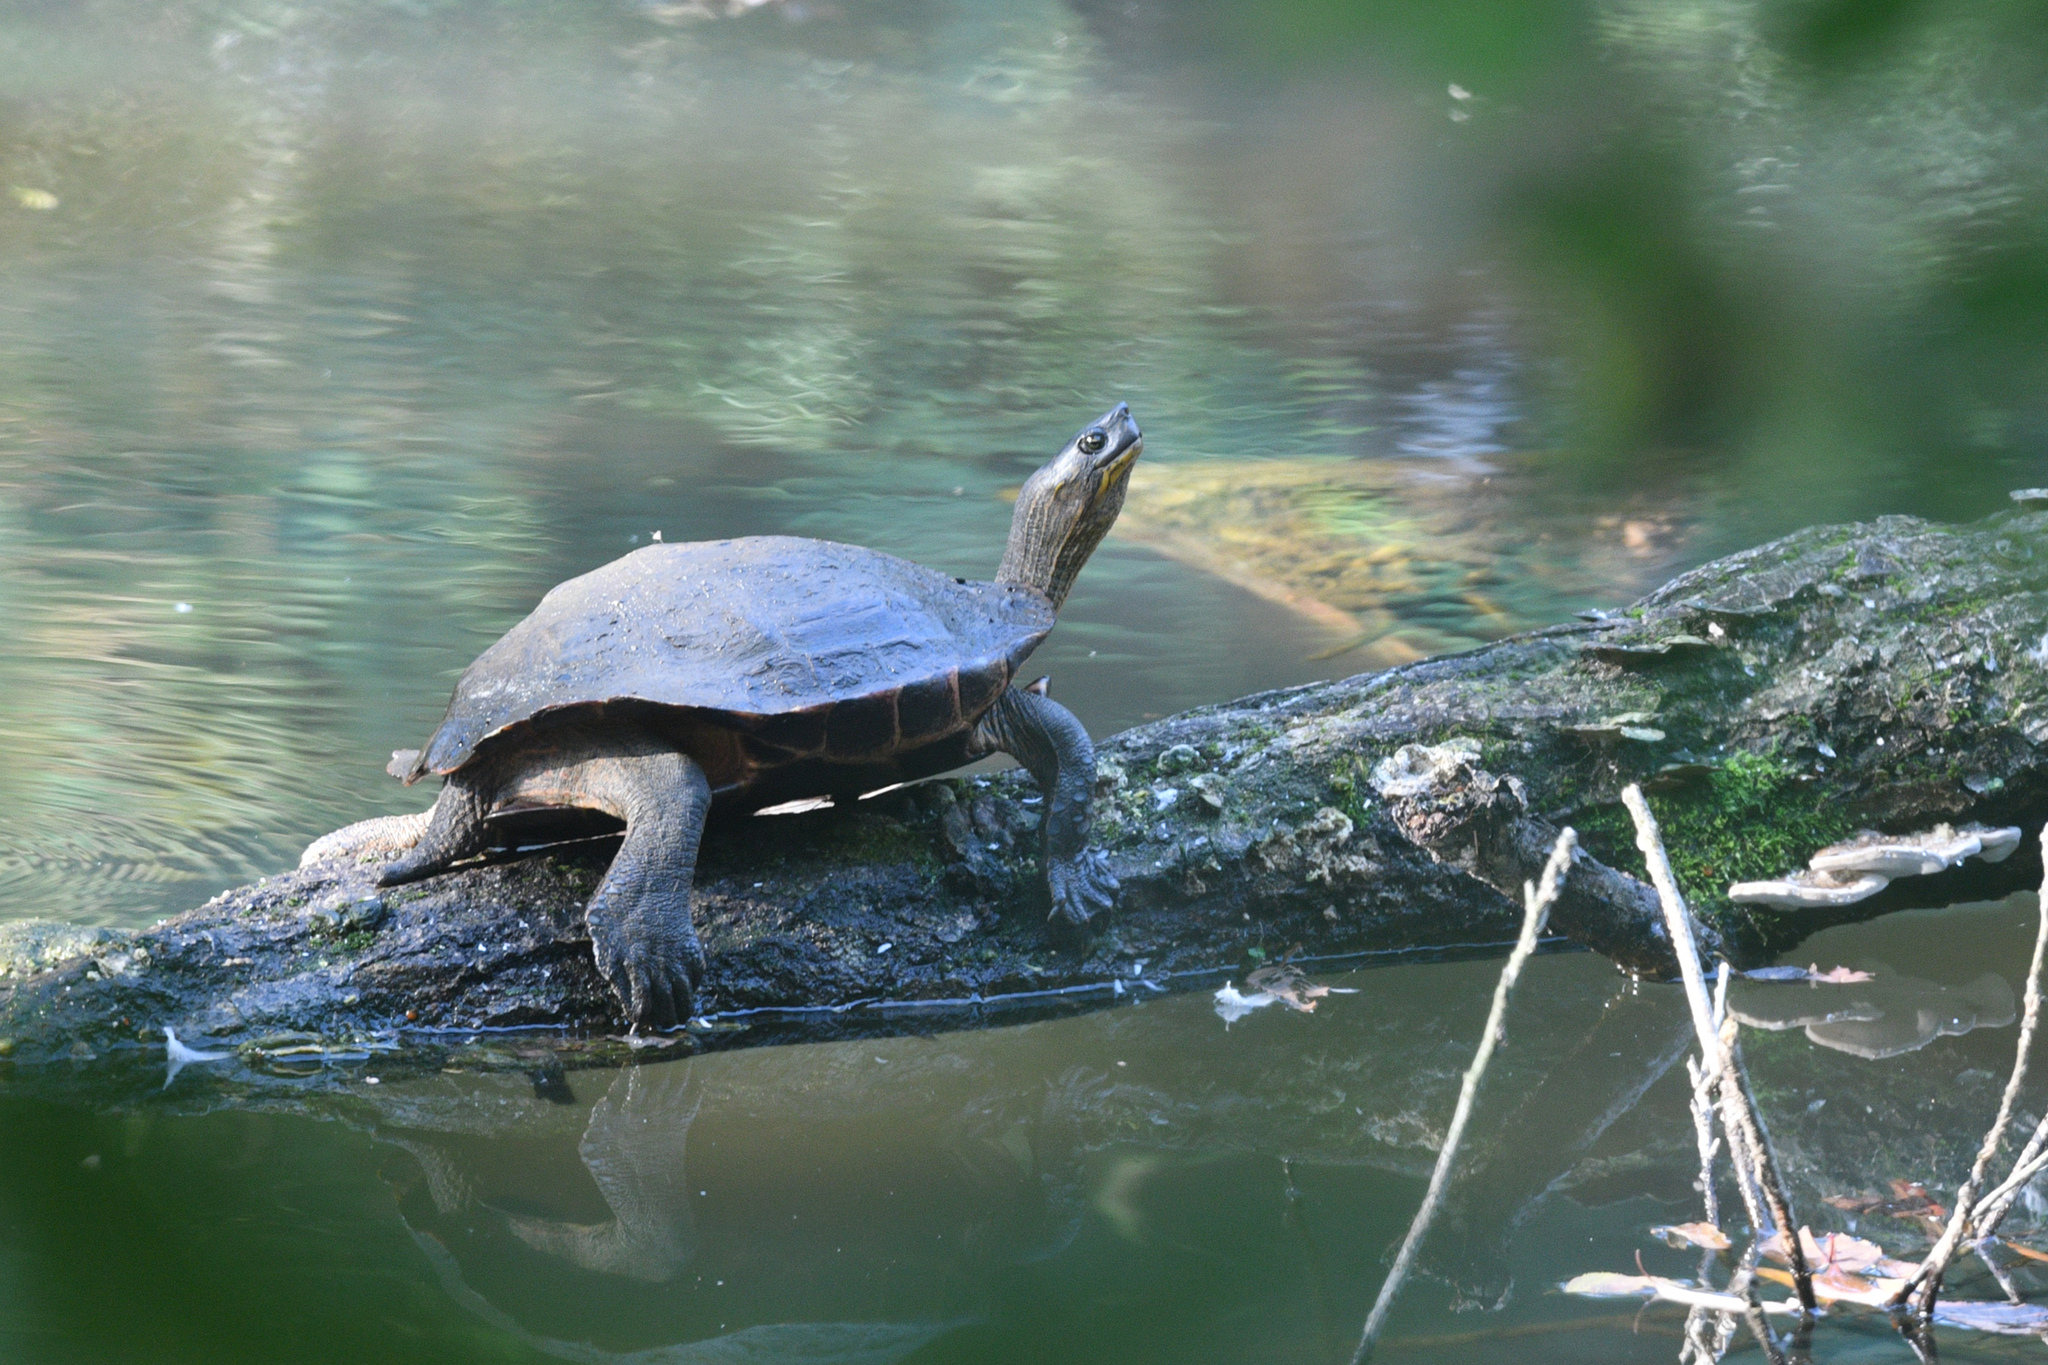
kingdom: Animalia
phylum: Chordata
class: Testudines
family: Geoemydidae
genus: Mauremys
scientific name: Mauremys reevesii
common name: Chinese pond turtle
